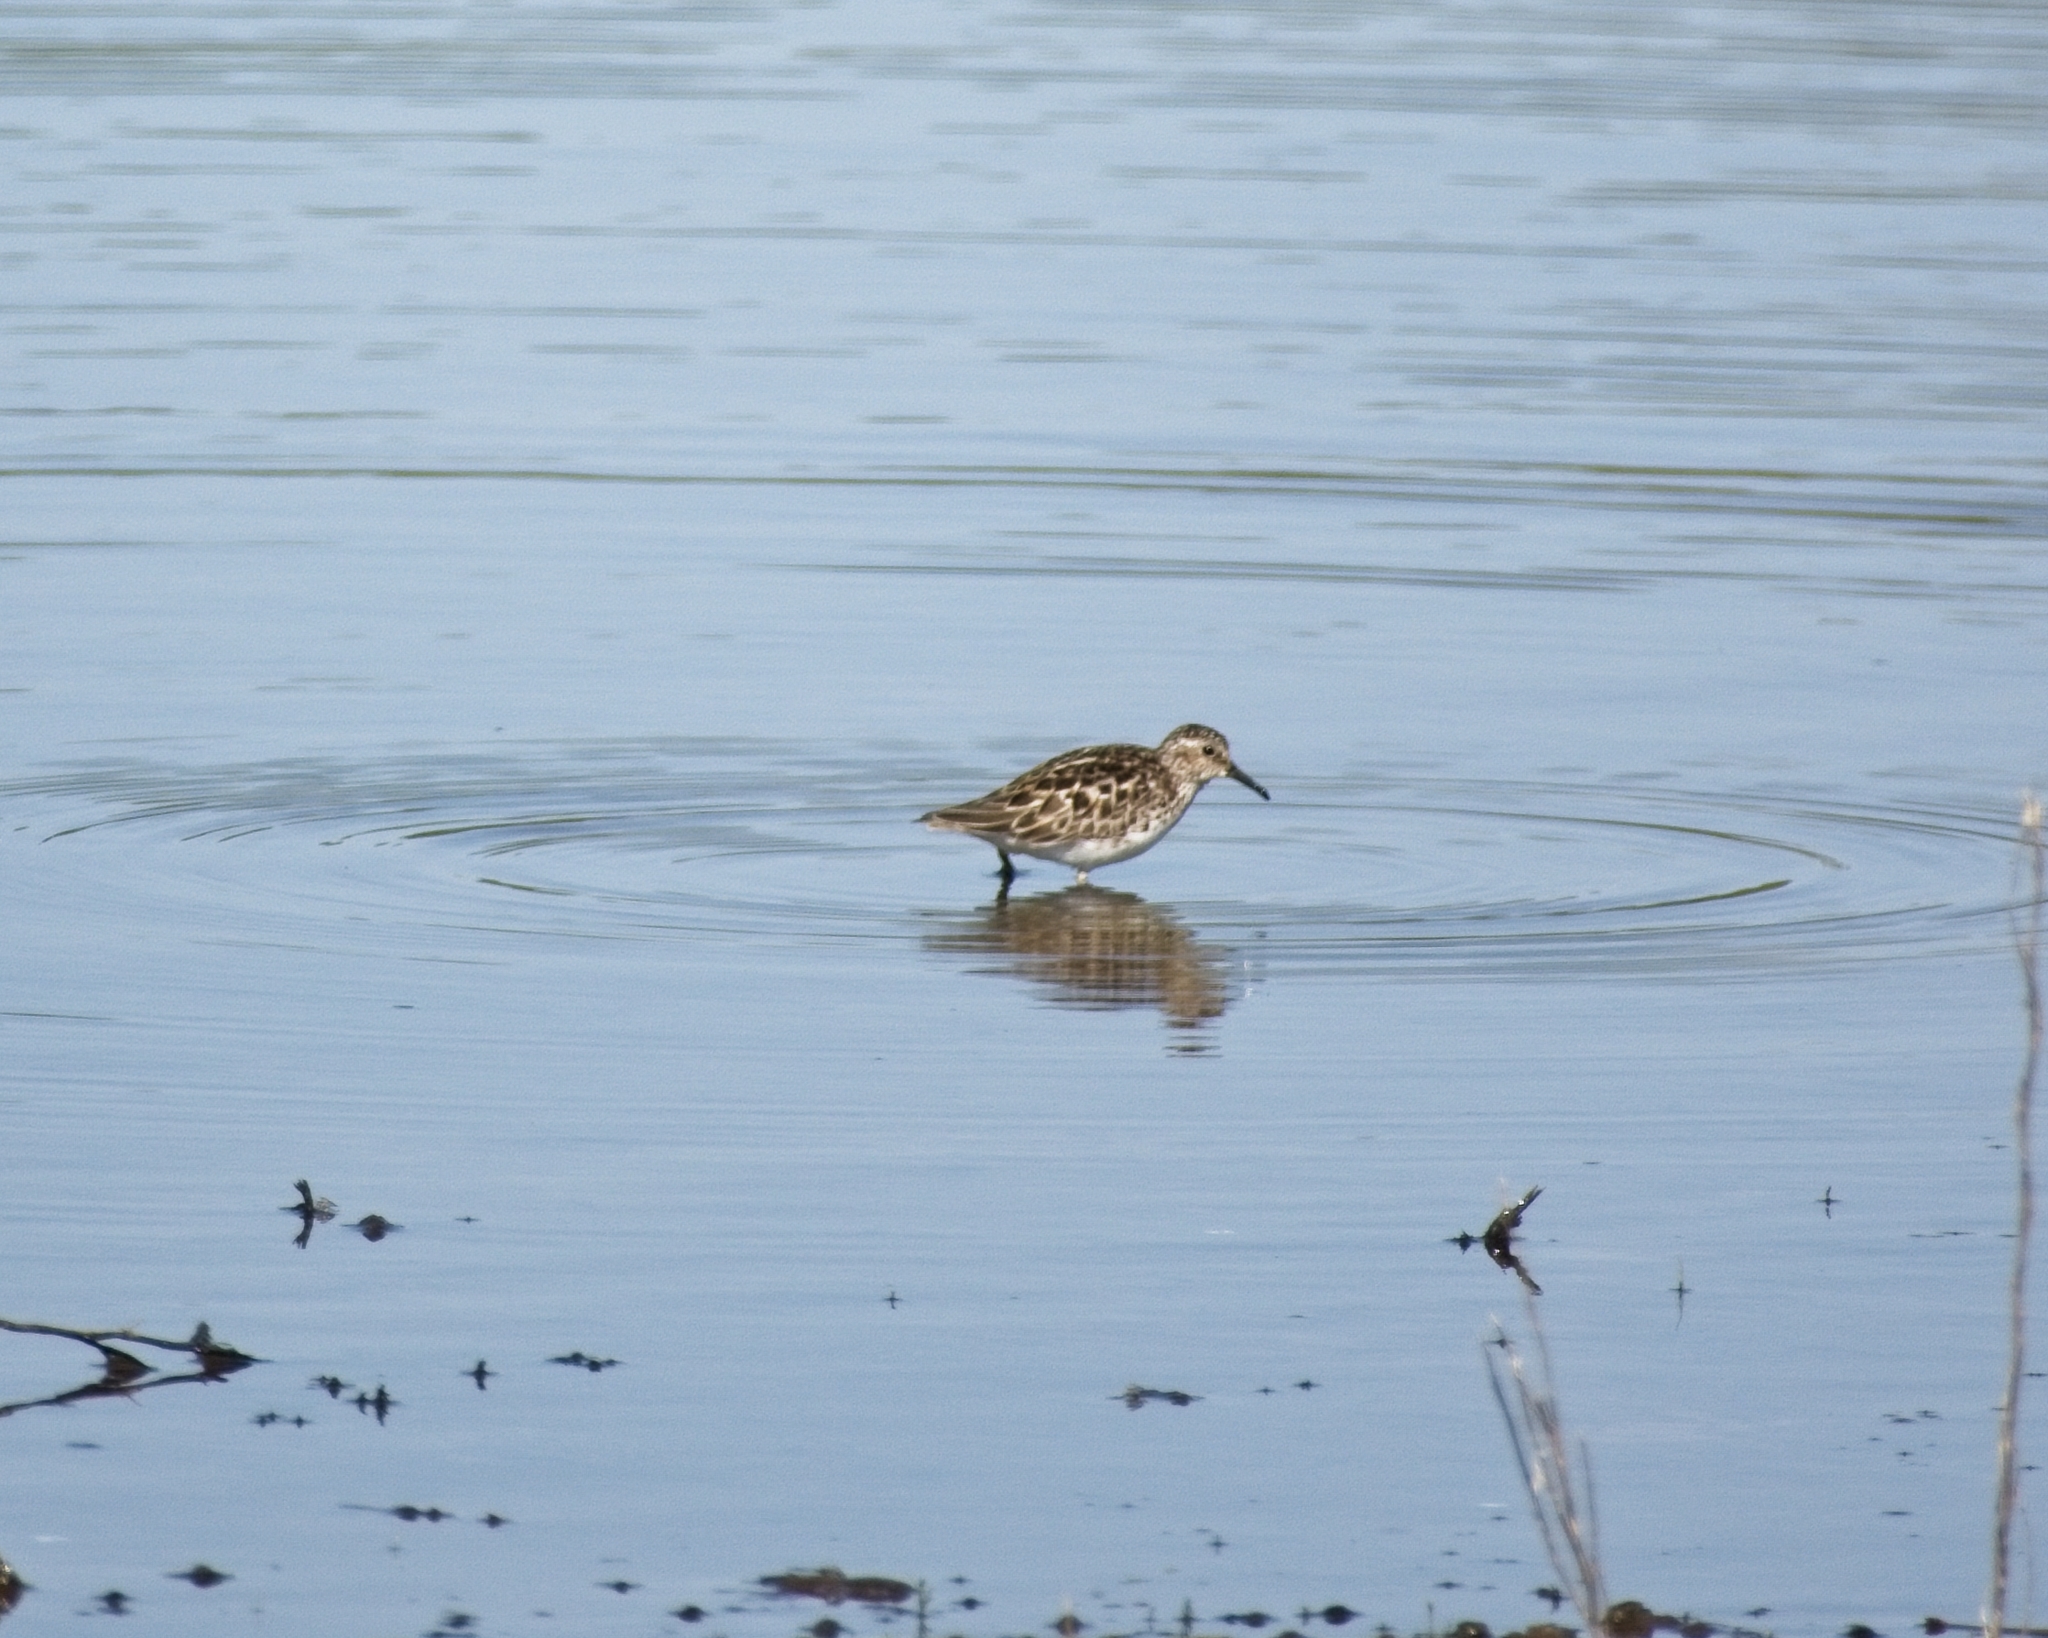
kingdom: Animalia
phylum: Chordata
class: Aves
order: Charadriiformes
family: Scolopacidae
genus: Calidris
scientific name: Calidris minutilla
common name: Least sandpiper
